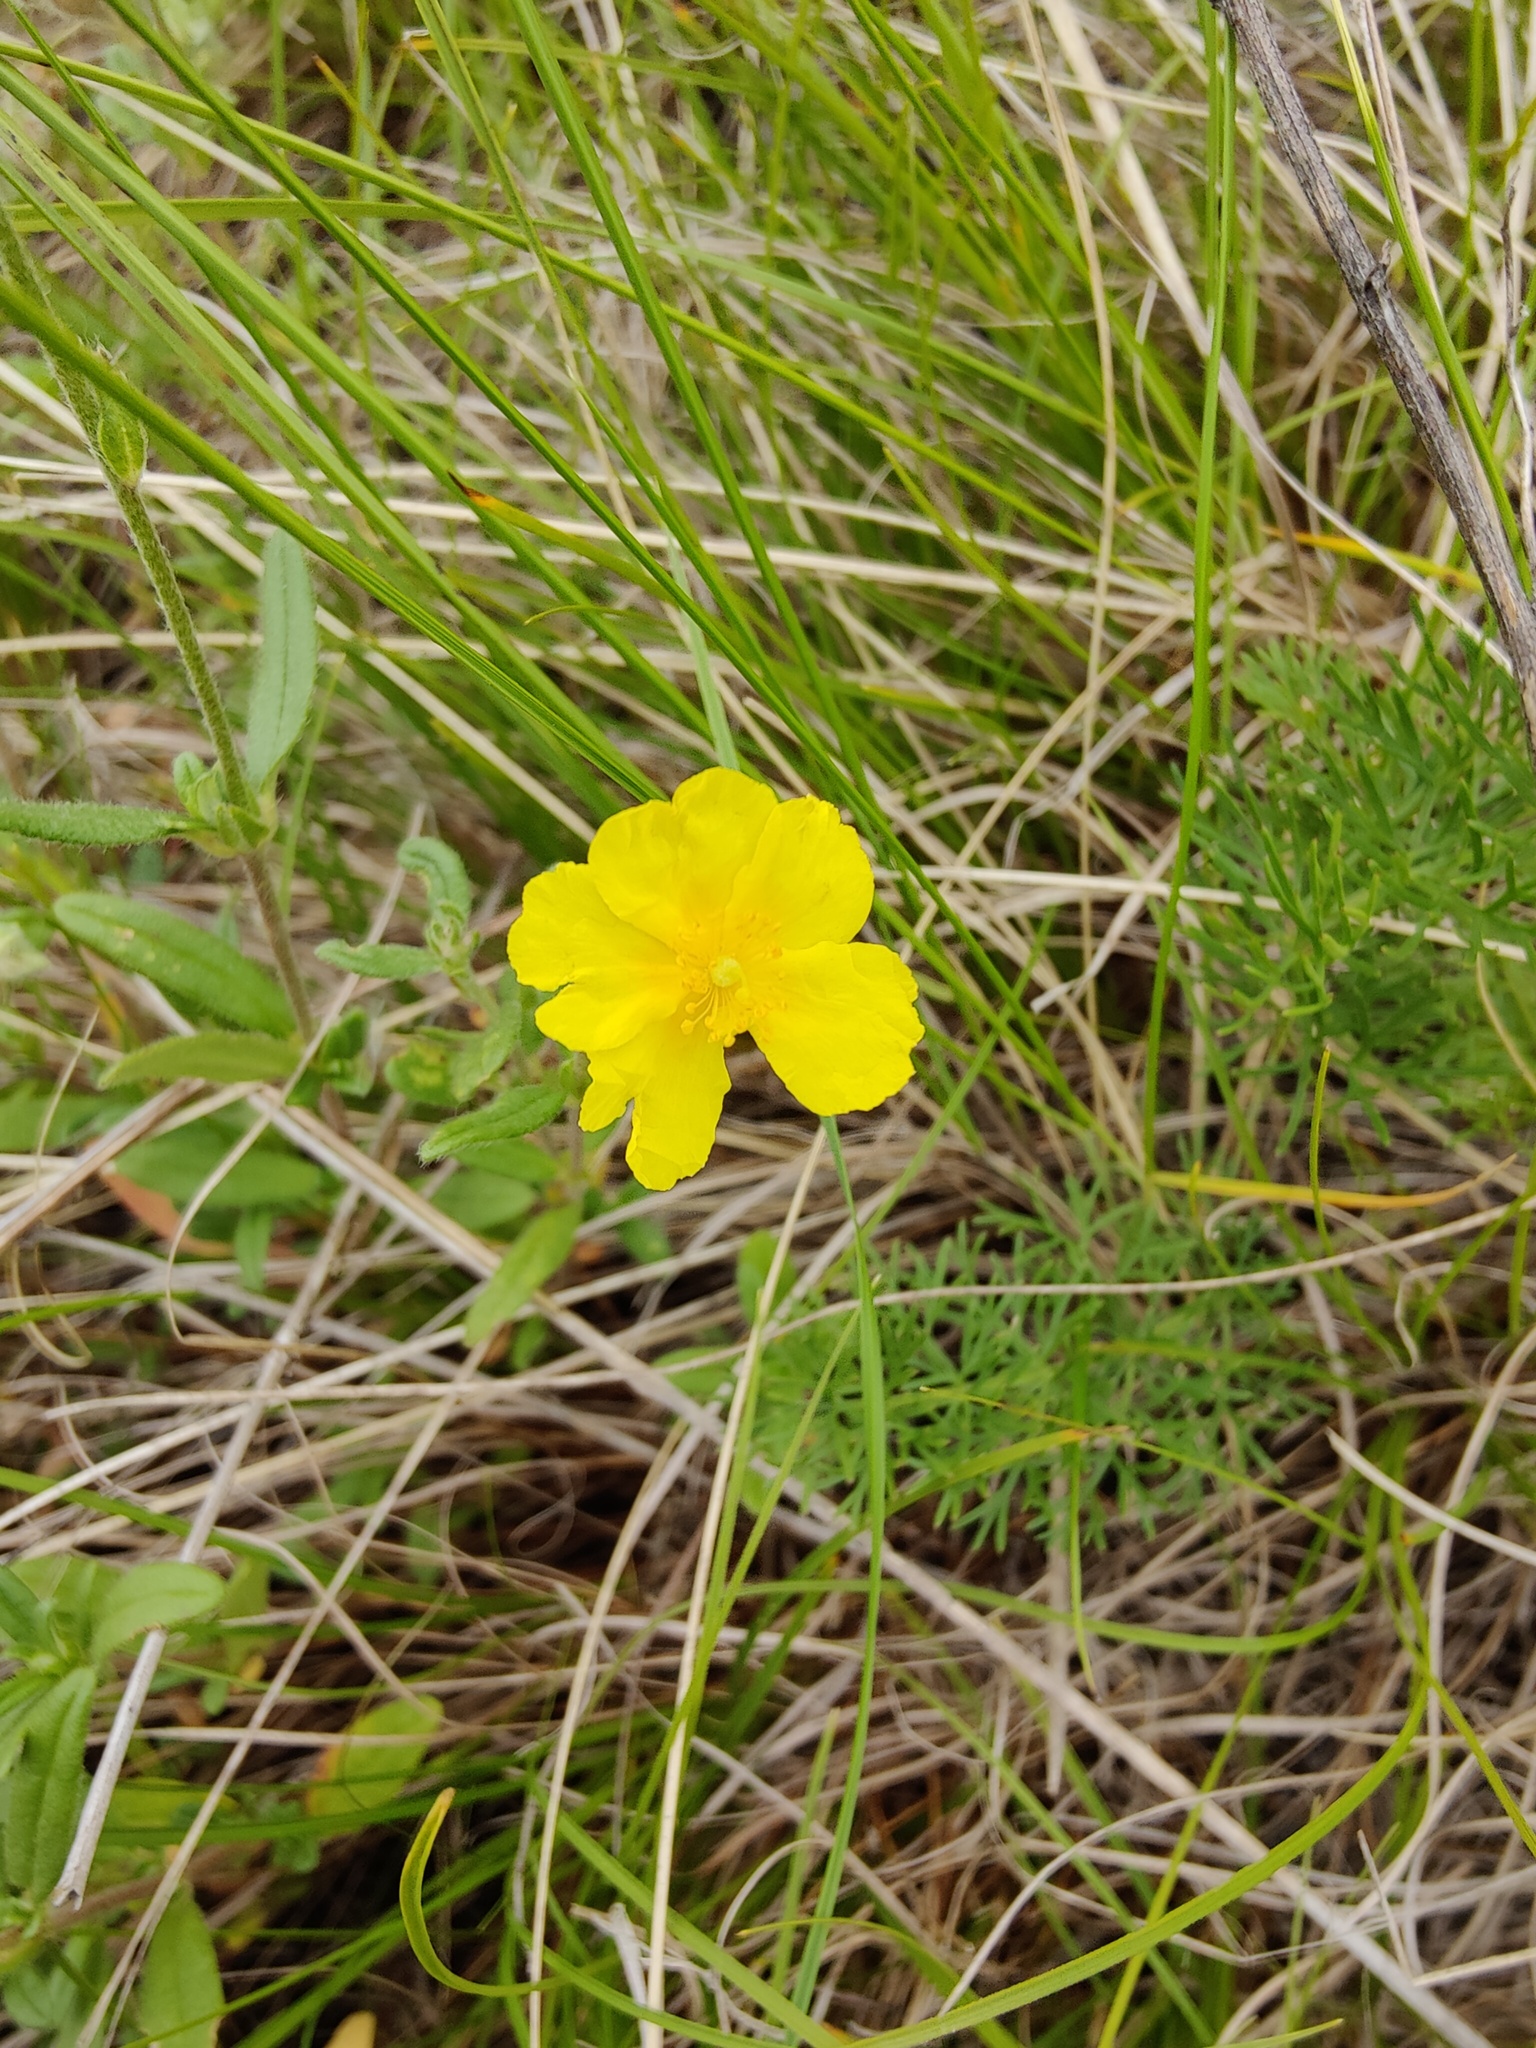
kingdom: Plantae
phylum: Tracheophyta
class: Magnoliopsida
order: Malvales
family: Cistaceae
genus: Helianthemum
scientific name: Helianthemum nummularium
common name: Common rock-rose
